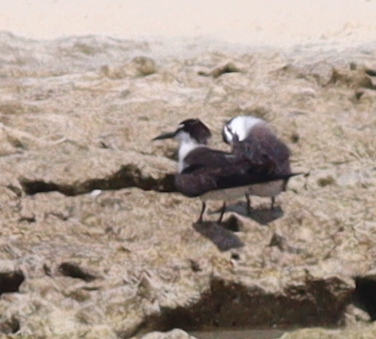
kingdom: Animalia
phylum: Chordata
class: Aves
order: Charadriiformes
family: Laridae
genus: Onychoprion
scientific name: Onychoprion anaethetus
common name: Bridled tern
